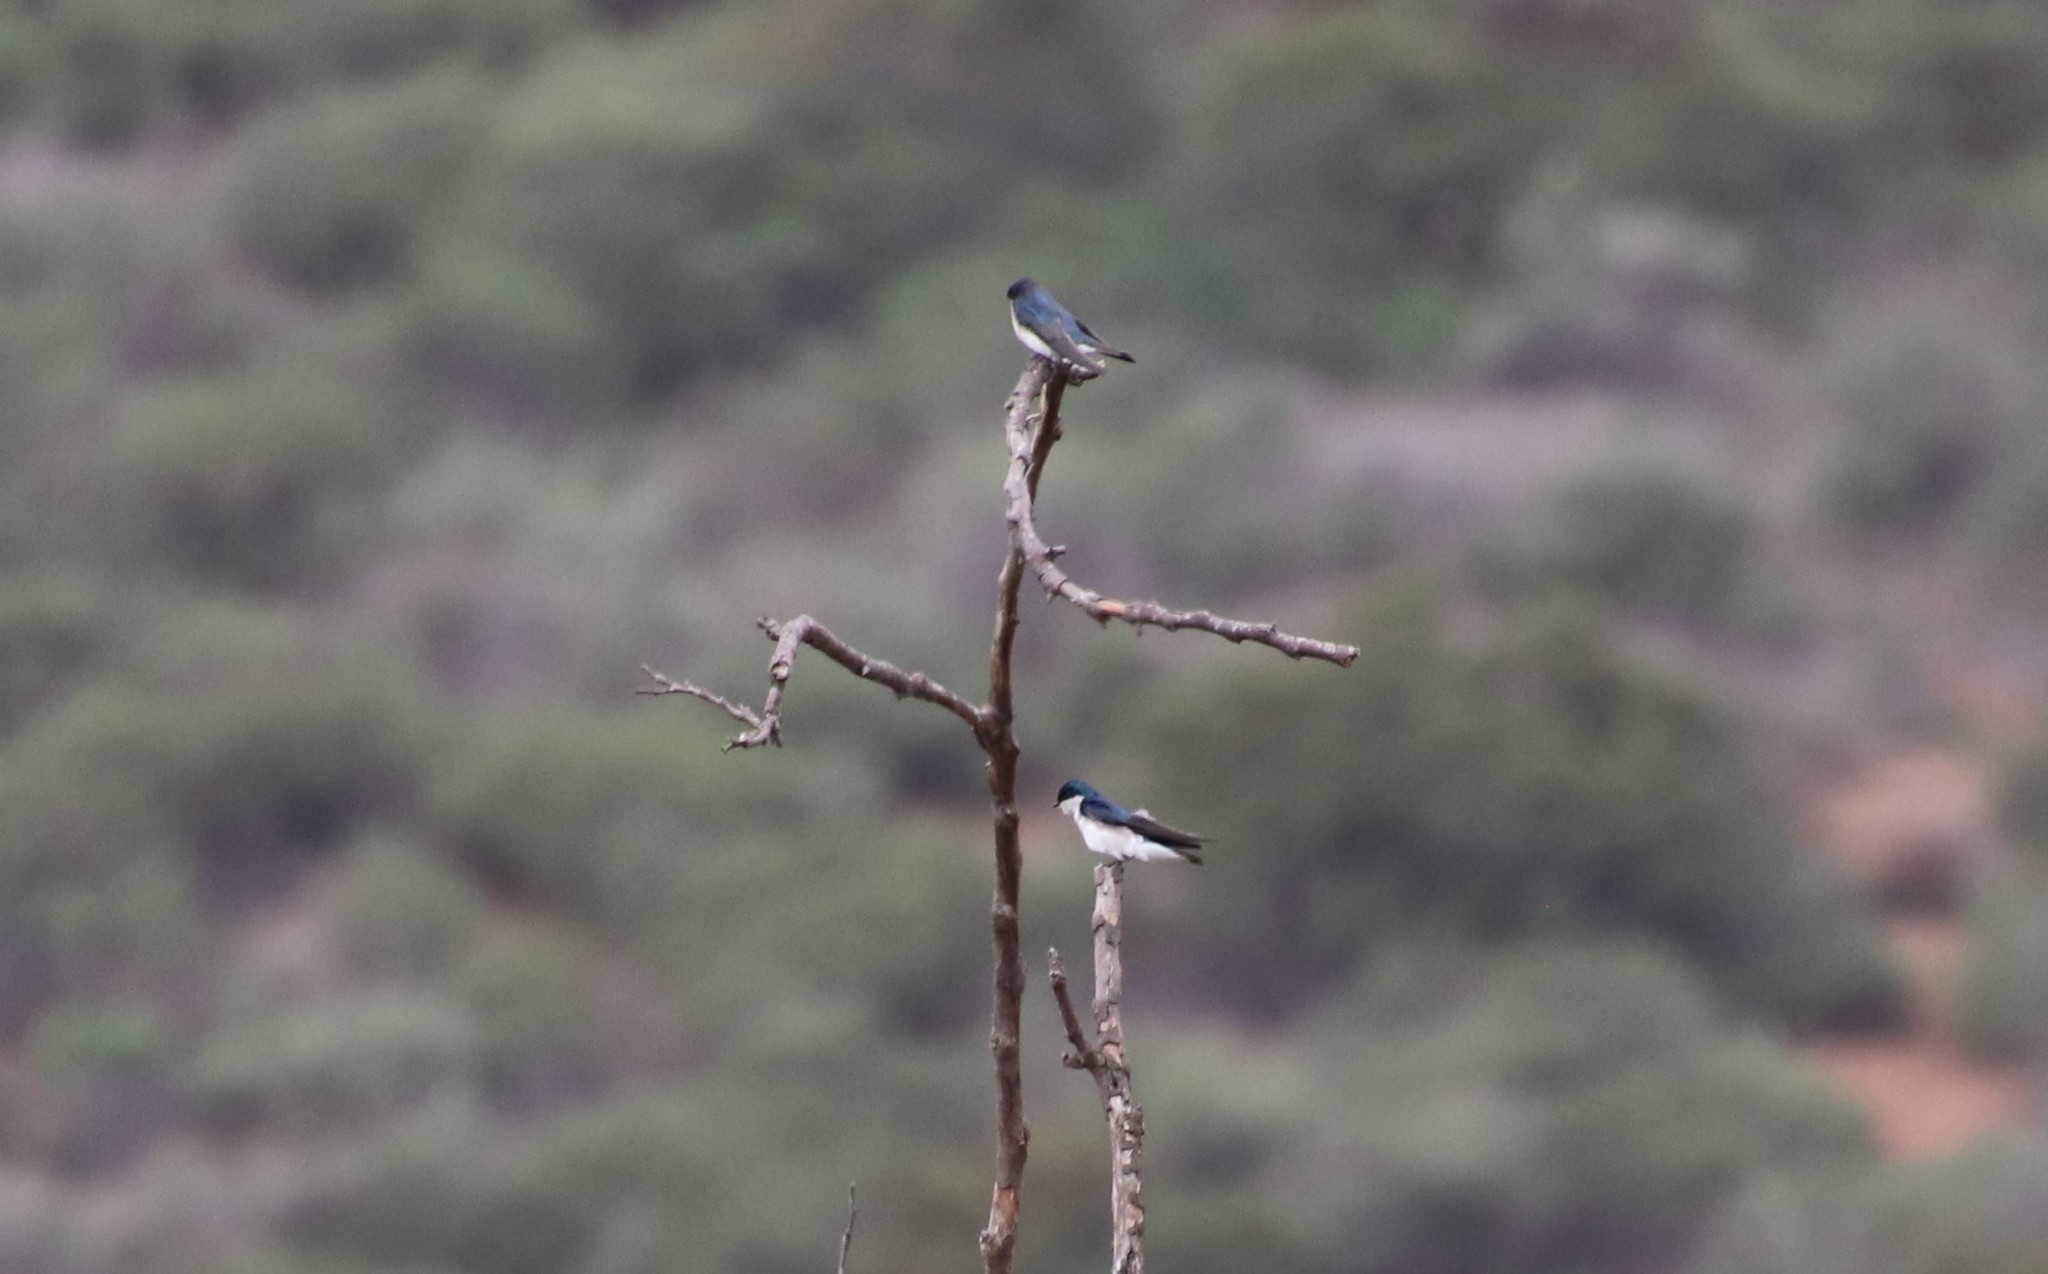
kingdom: Animalia
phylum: Chordata
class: Aves
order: Passeriformes
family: Hirundinidae
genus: Tachycineta
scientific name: Tachycineta bicolor
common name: Tree swallow
